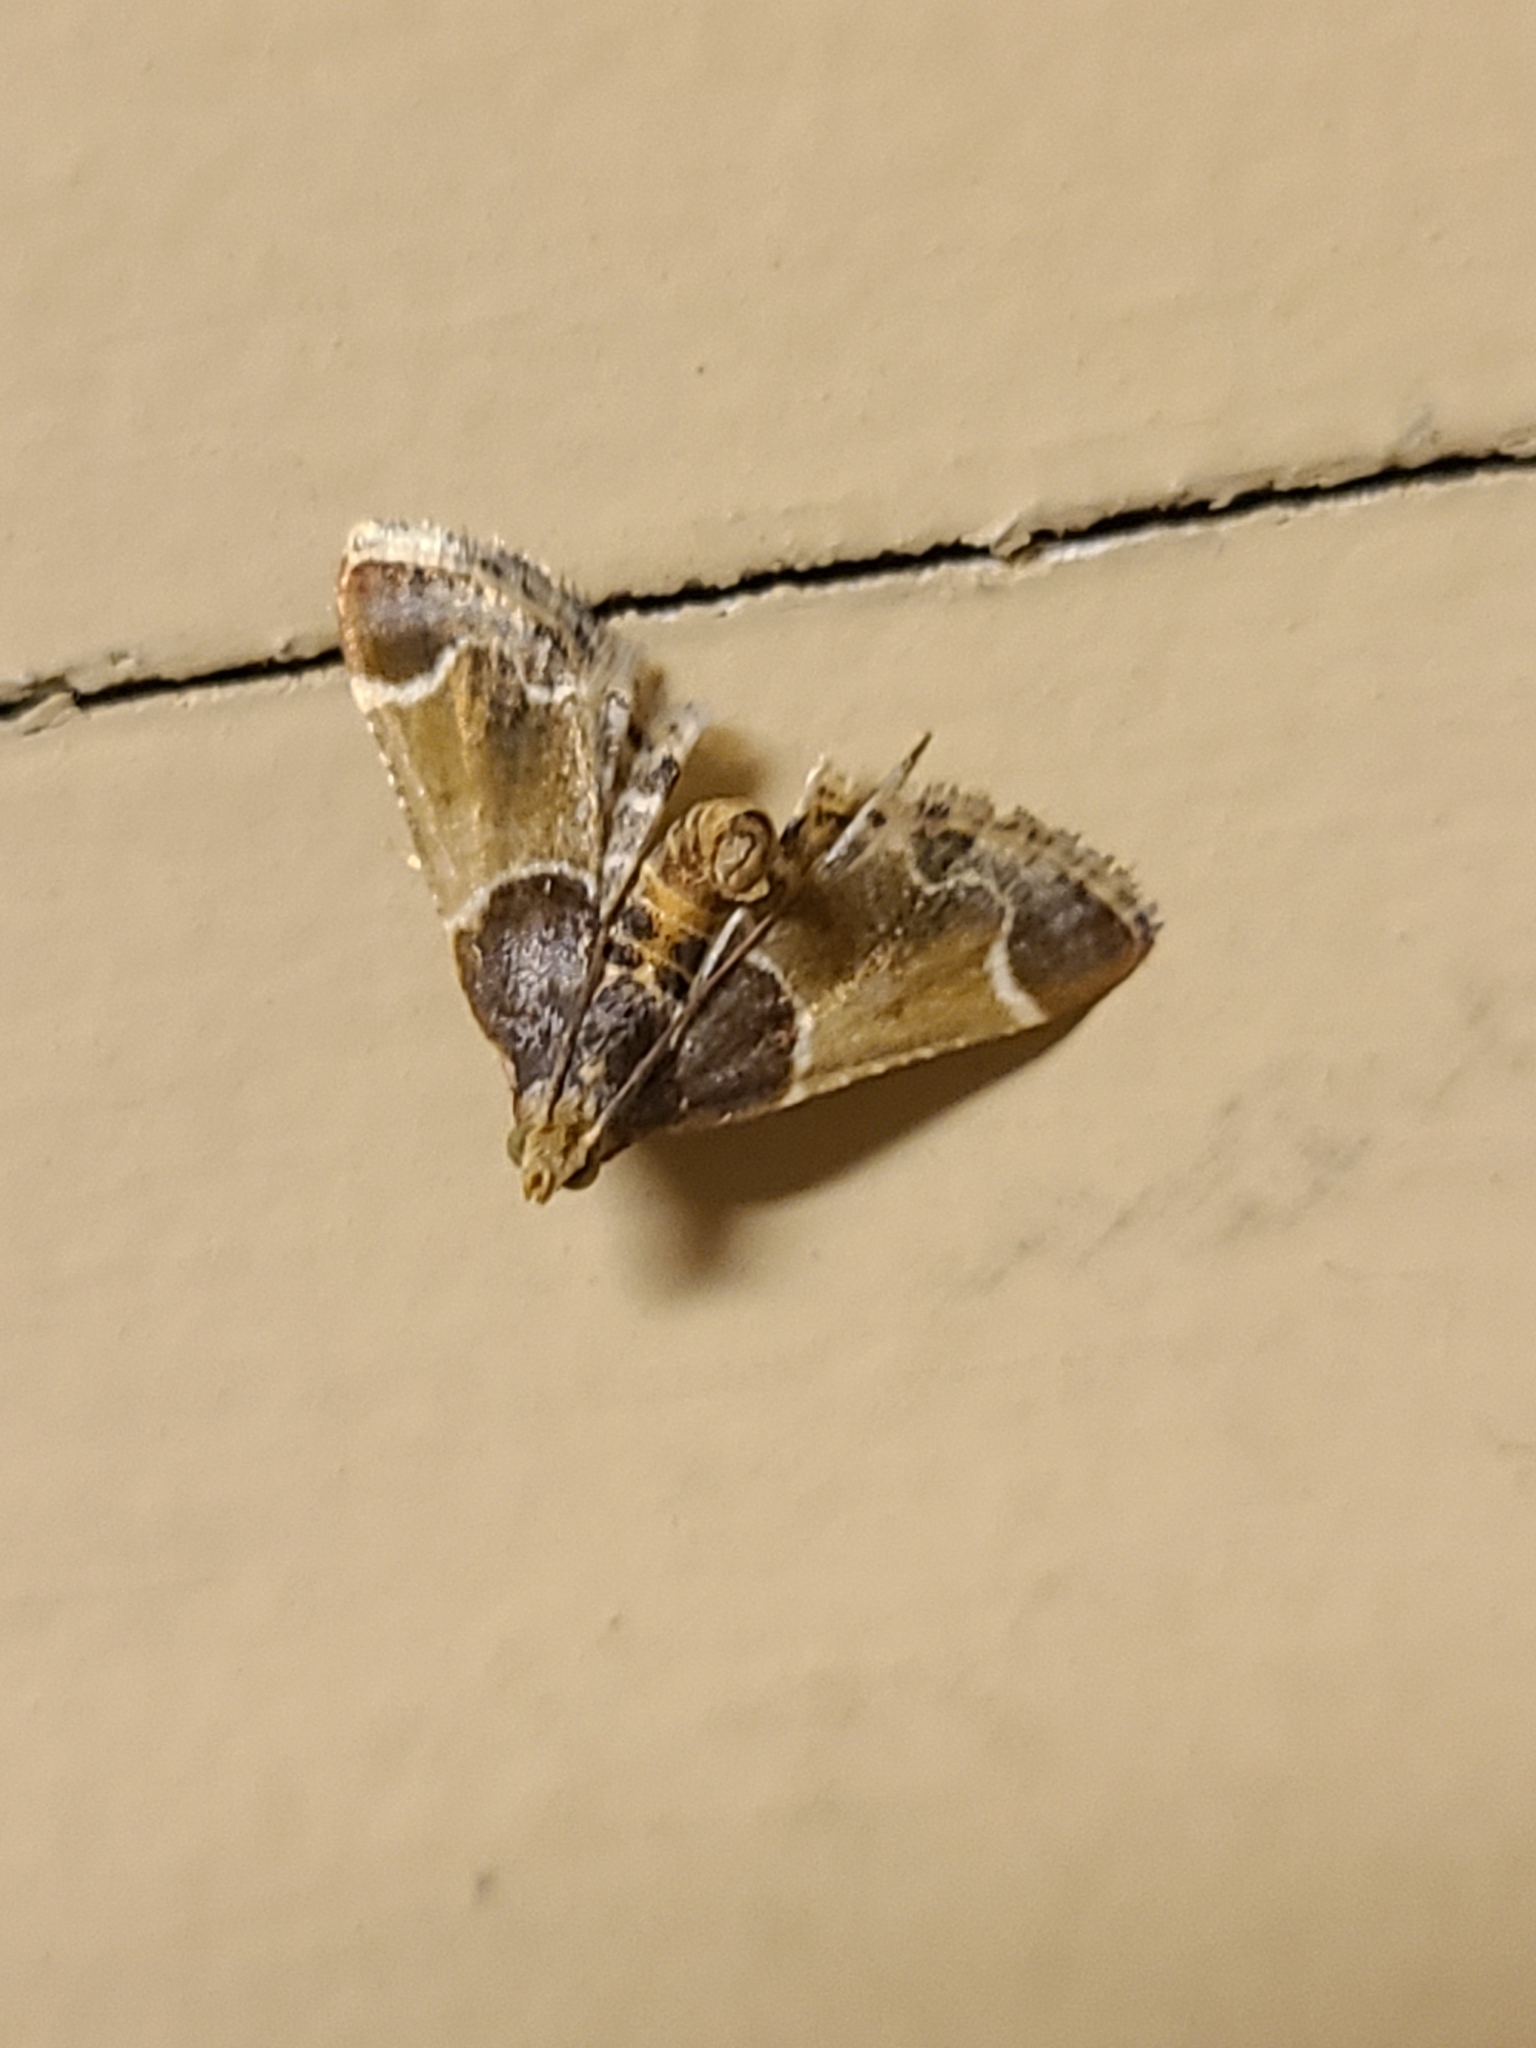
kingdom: Animalia
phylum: Arthropoda
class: Insecta
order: Lepidoptera
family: Pyralidae
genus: Pyralis
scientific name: Pyralis farinalis
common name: Meal moth
